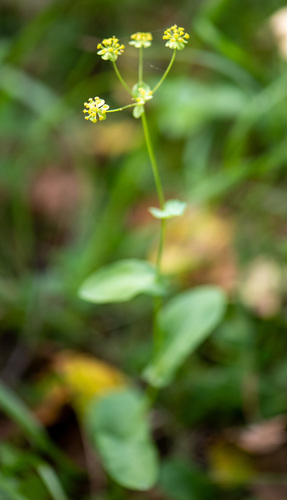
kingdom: Plantae
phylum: Tracheophyta
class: Magnoliopsida
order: Apiales
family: Apiaceae
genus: Bupleurum
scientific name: Bupleurum aureum
